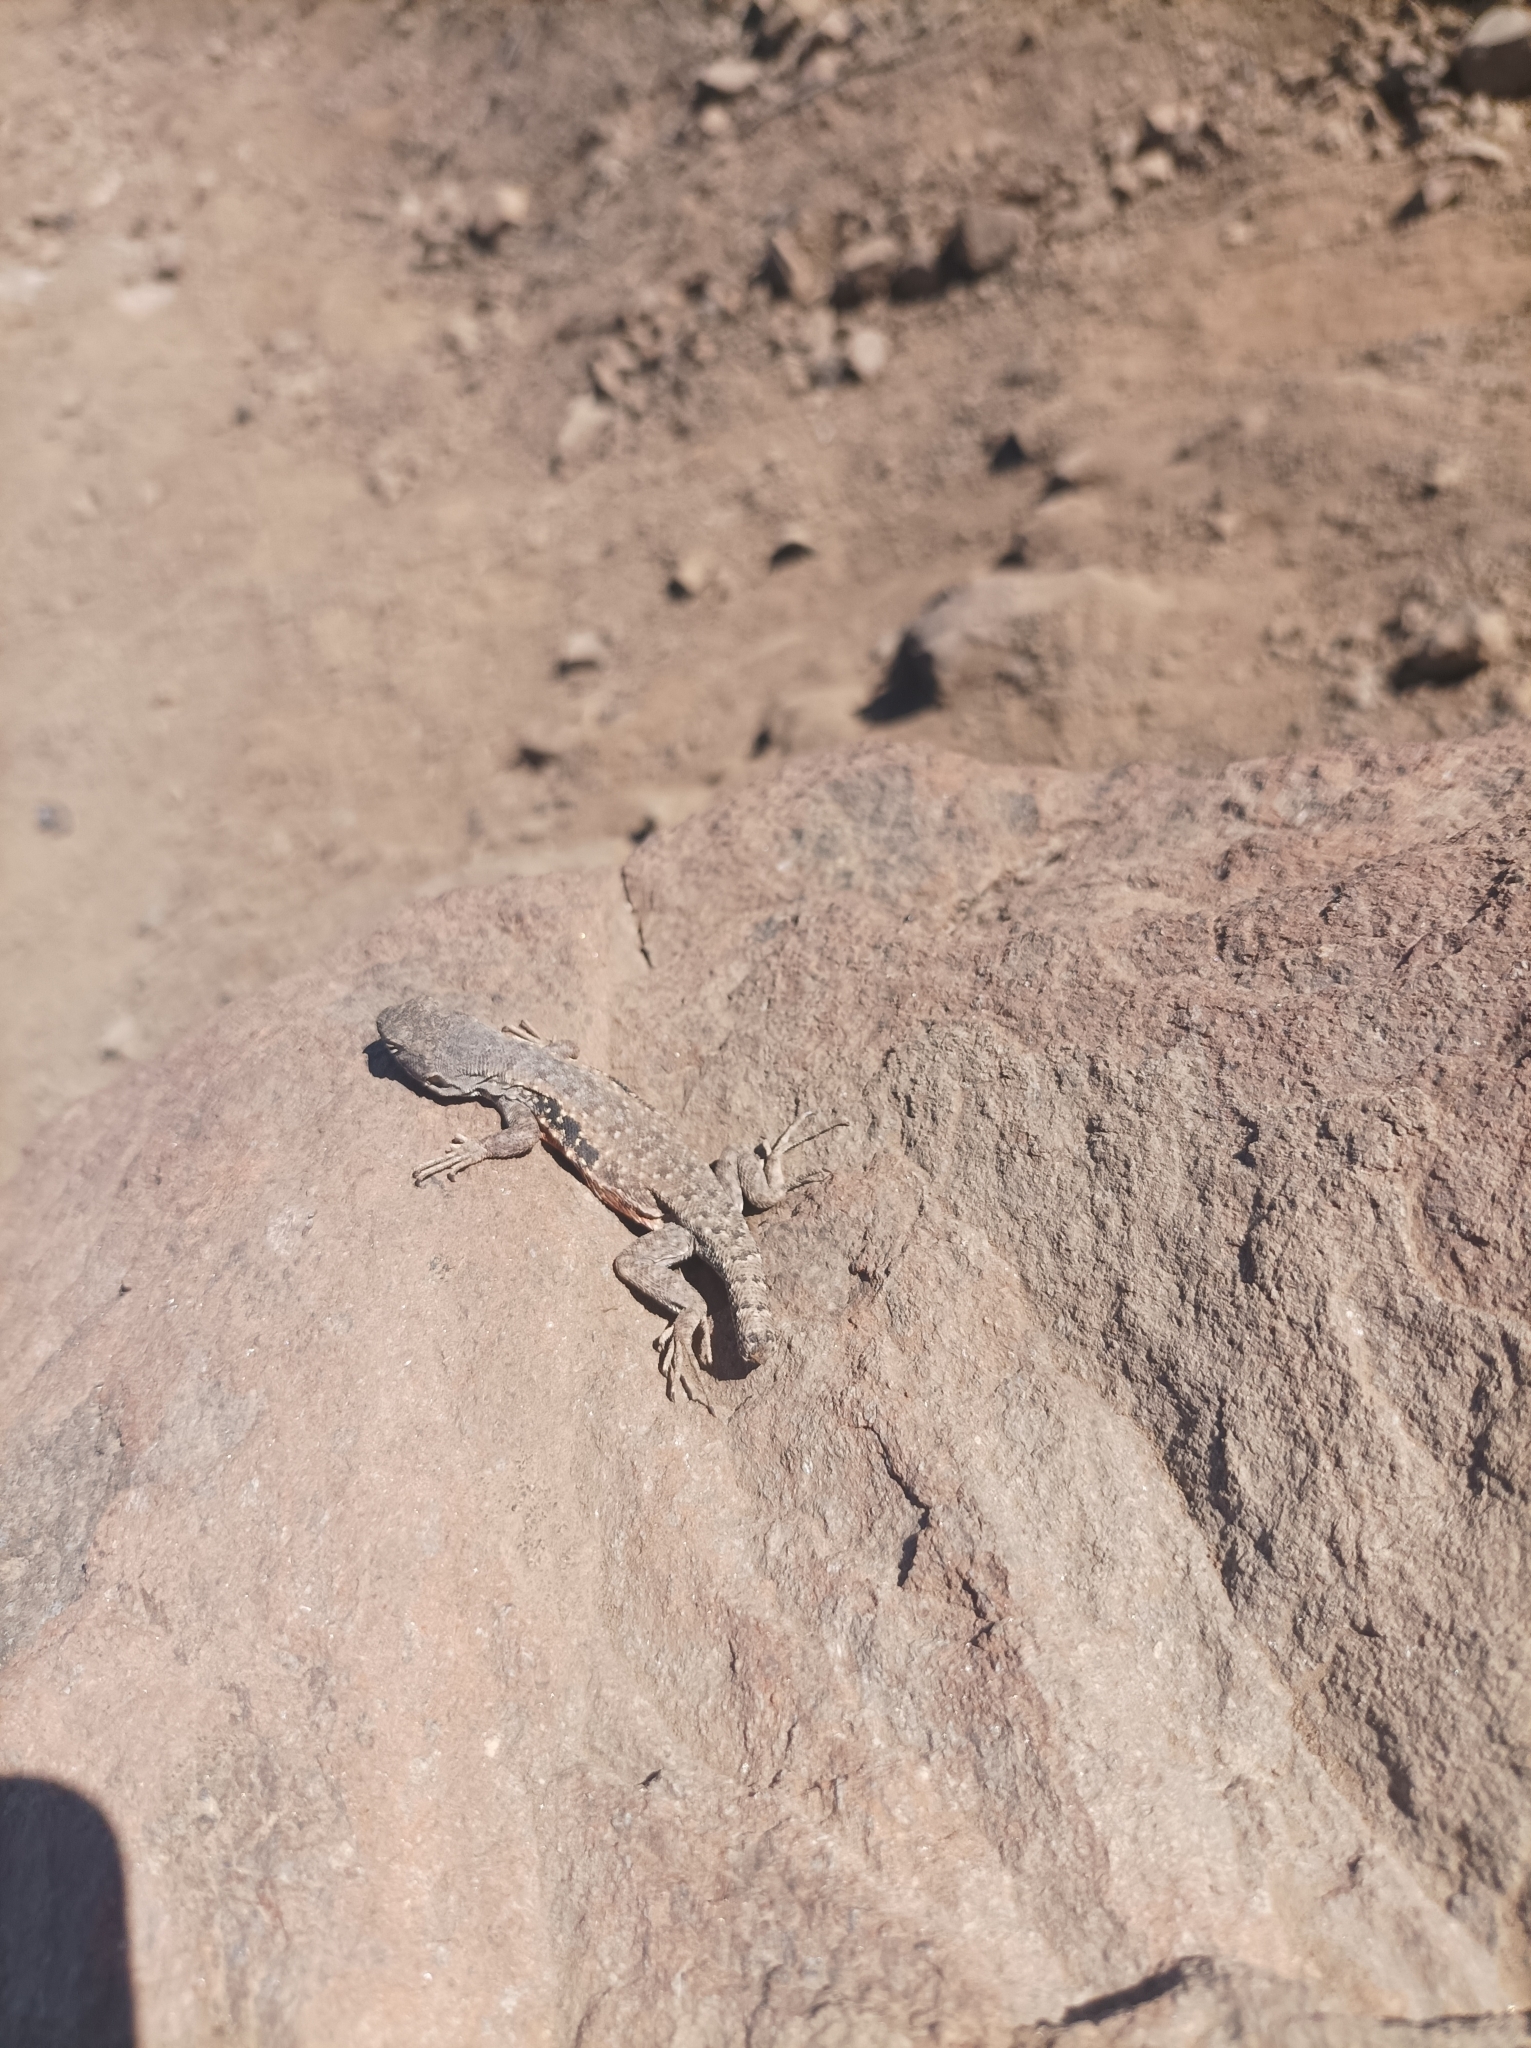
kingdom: Animalia
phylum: Chordata
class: Squamata
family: Liolaemidae
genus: Liolaemus
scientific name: Liolaemus monticola
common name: Peak tree iguana
